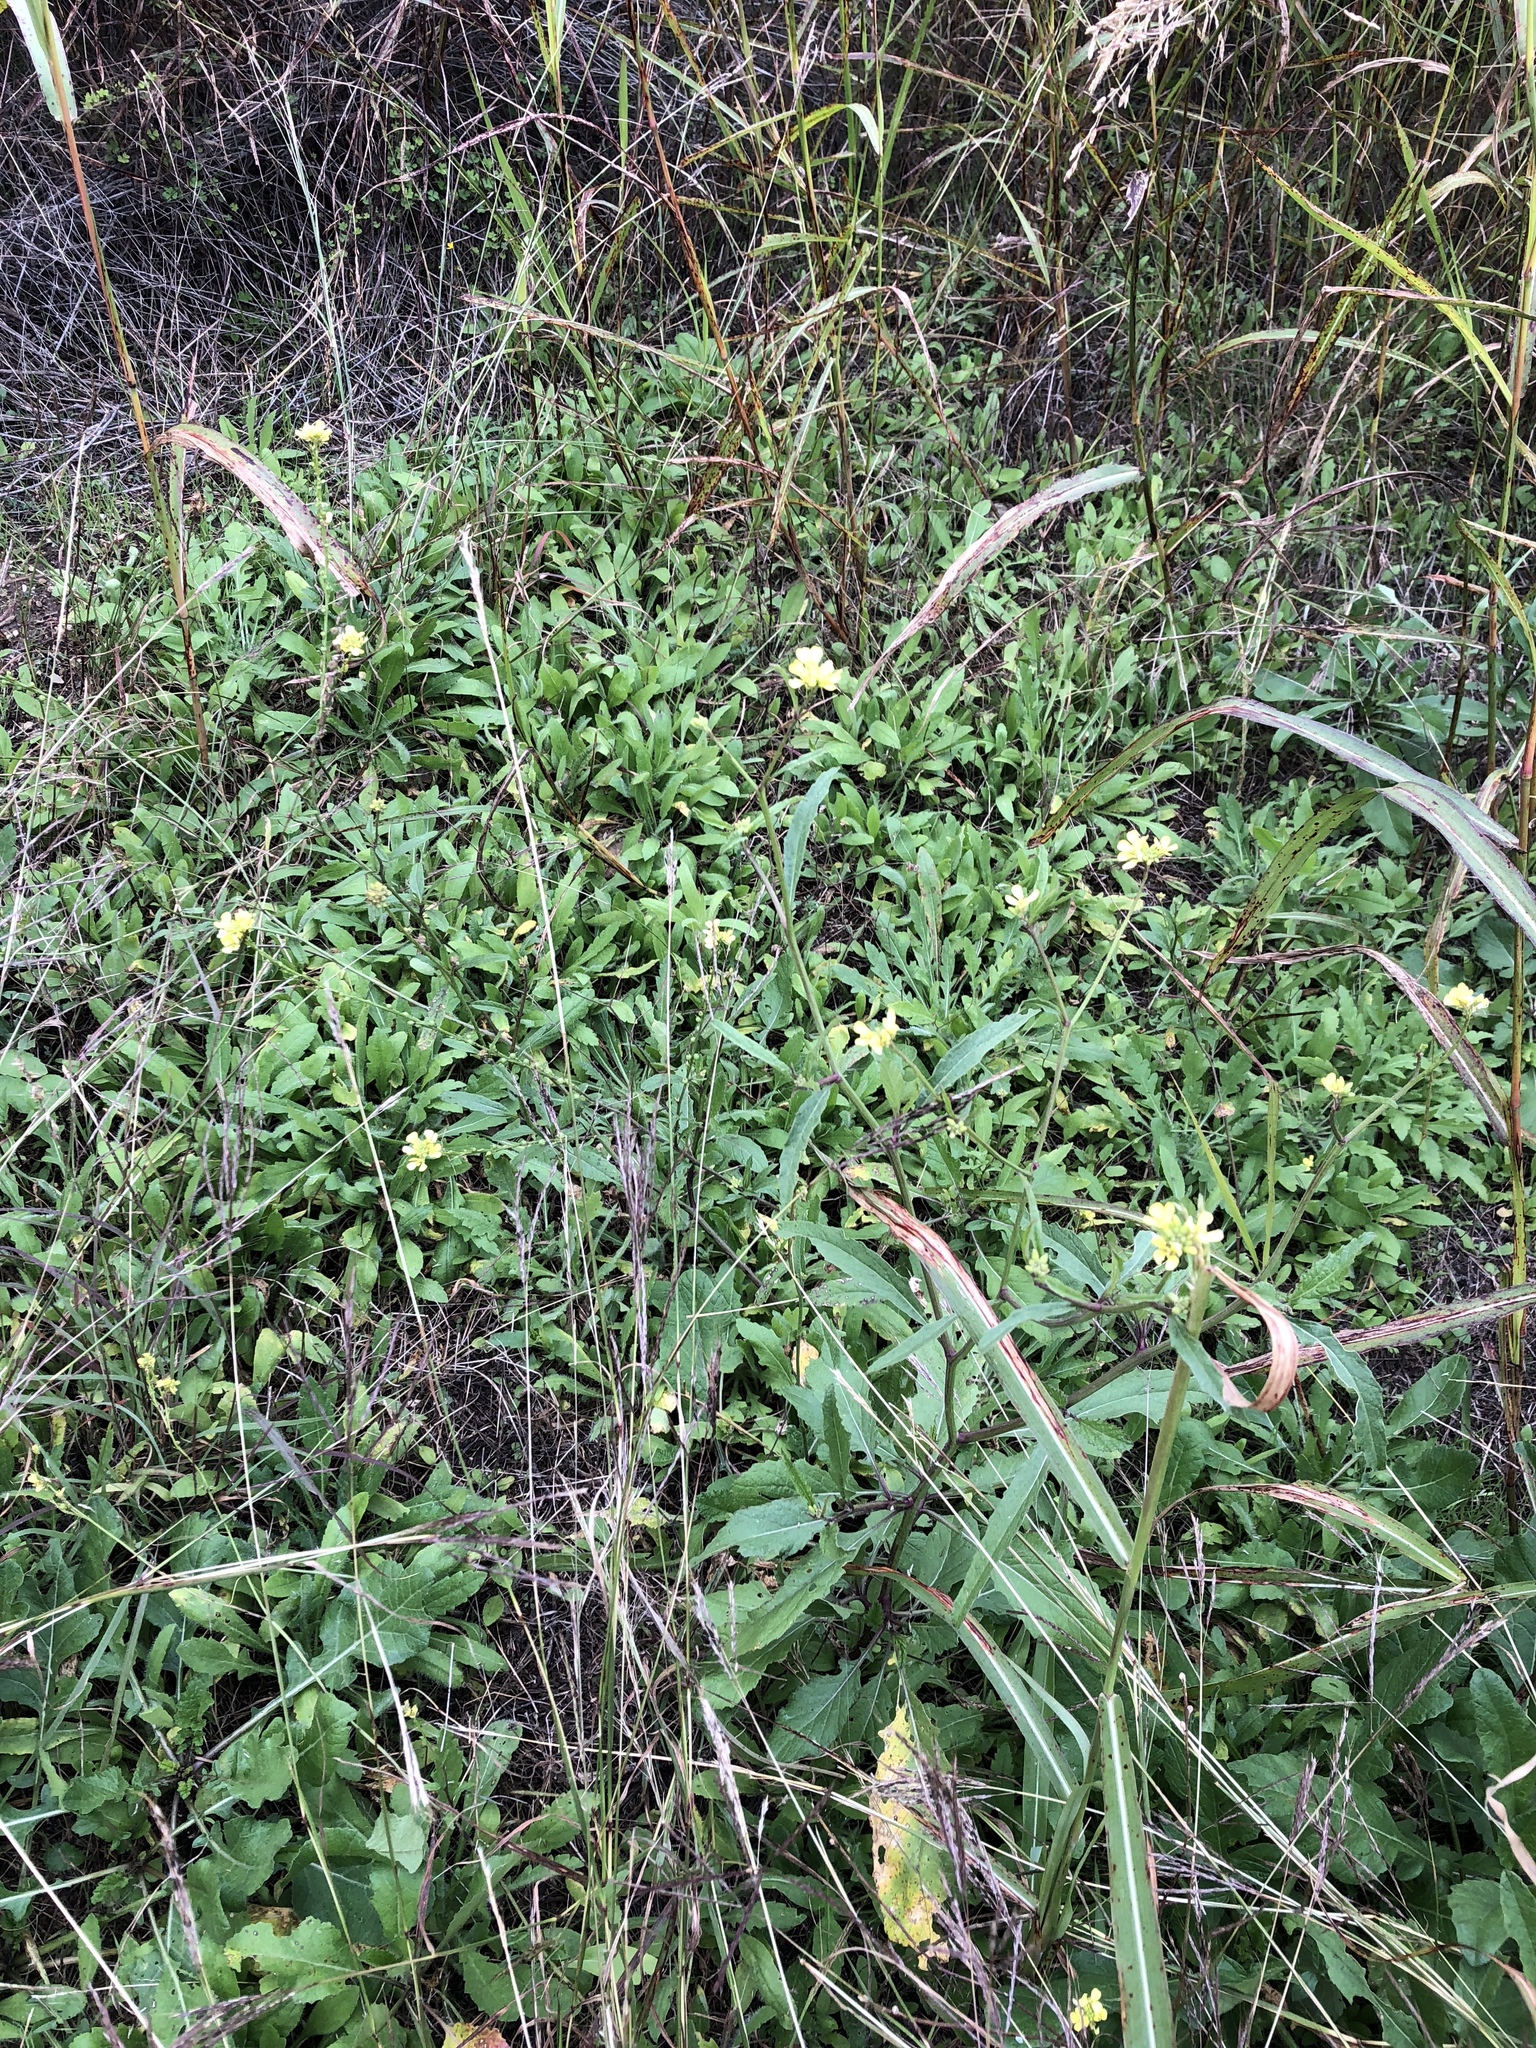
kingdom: Plantae
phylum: Tracheophyta
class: Magnoliopsida
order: Brassicales
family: Brassicaceae
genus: Rapistrum
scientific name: Rapistrum rugosum
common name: Annual bastardcabbage
